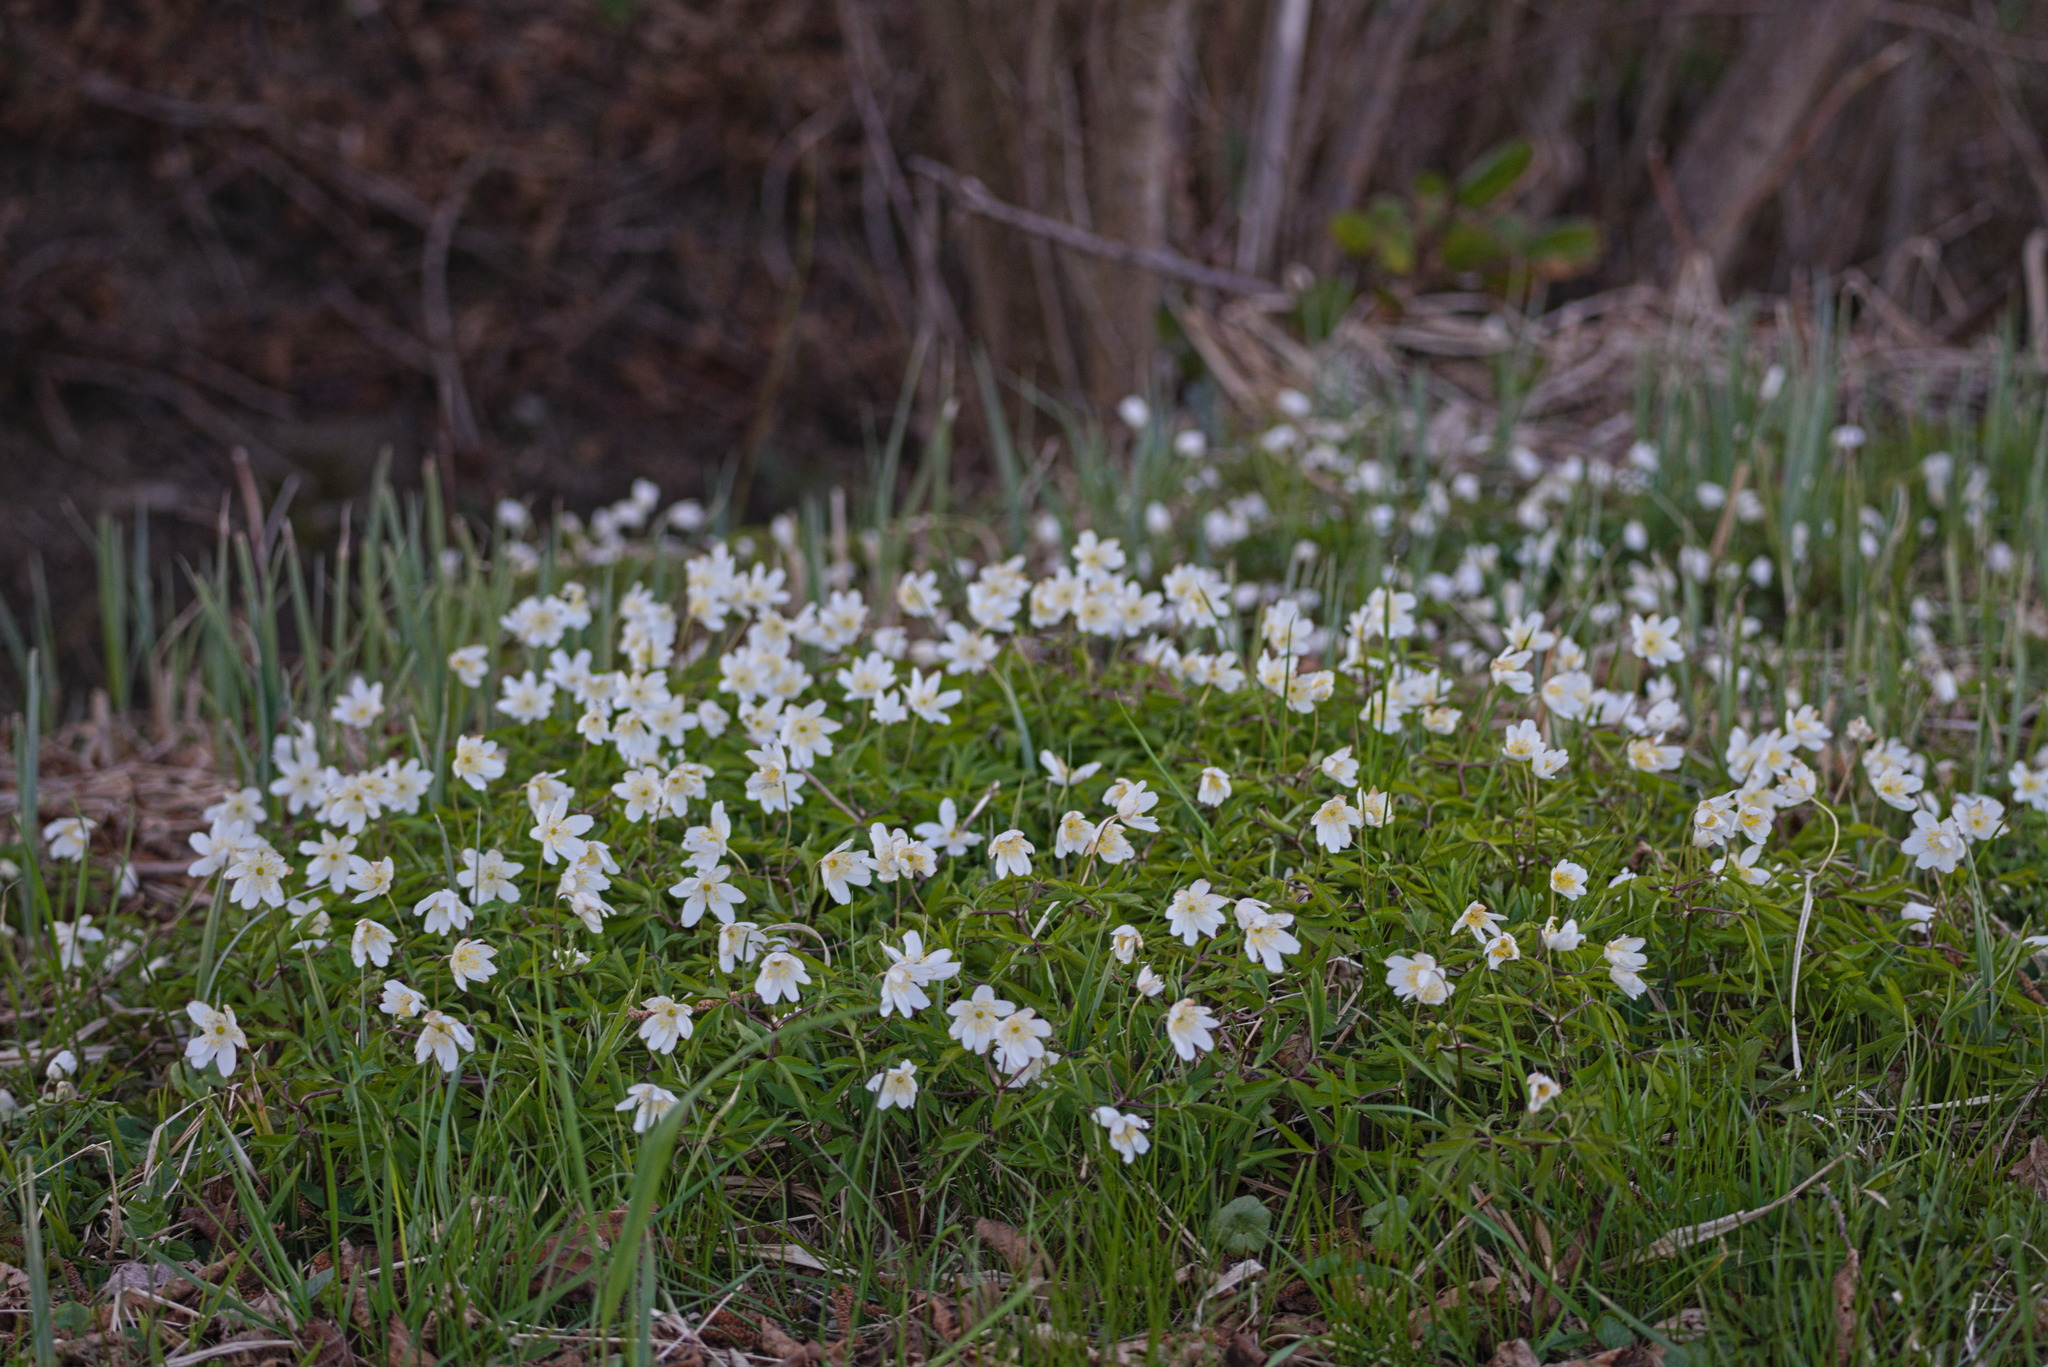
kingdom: Plantae
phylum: Tracheophyta
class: Magnoliopsida
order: Ranunculales
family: Ranunculaceae
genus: Anemone
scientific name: Anemone nemorosa
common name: Wood anemone
